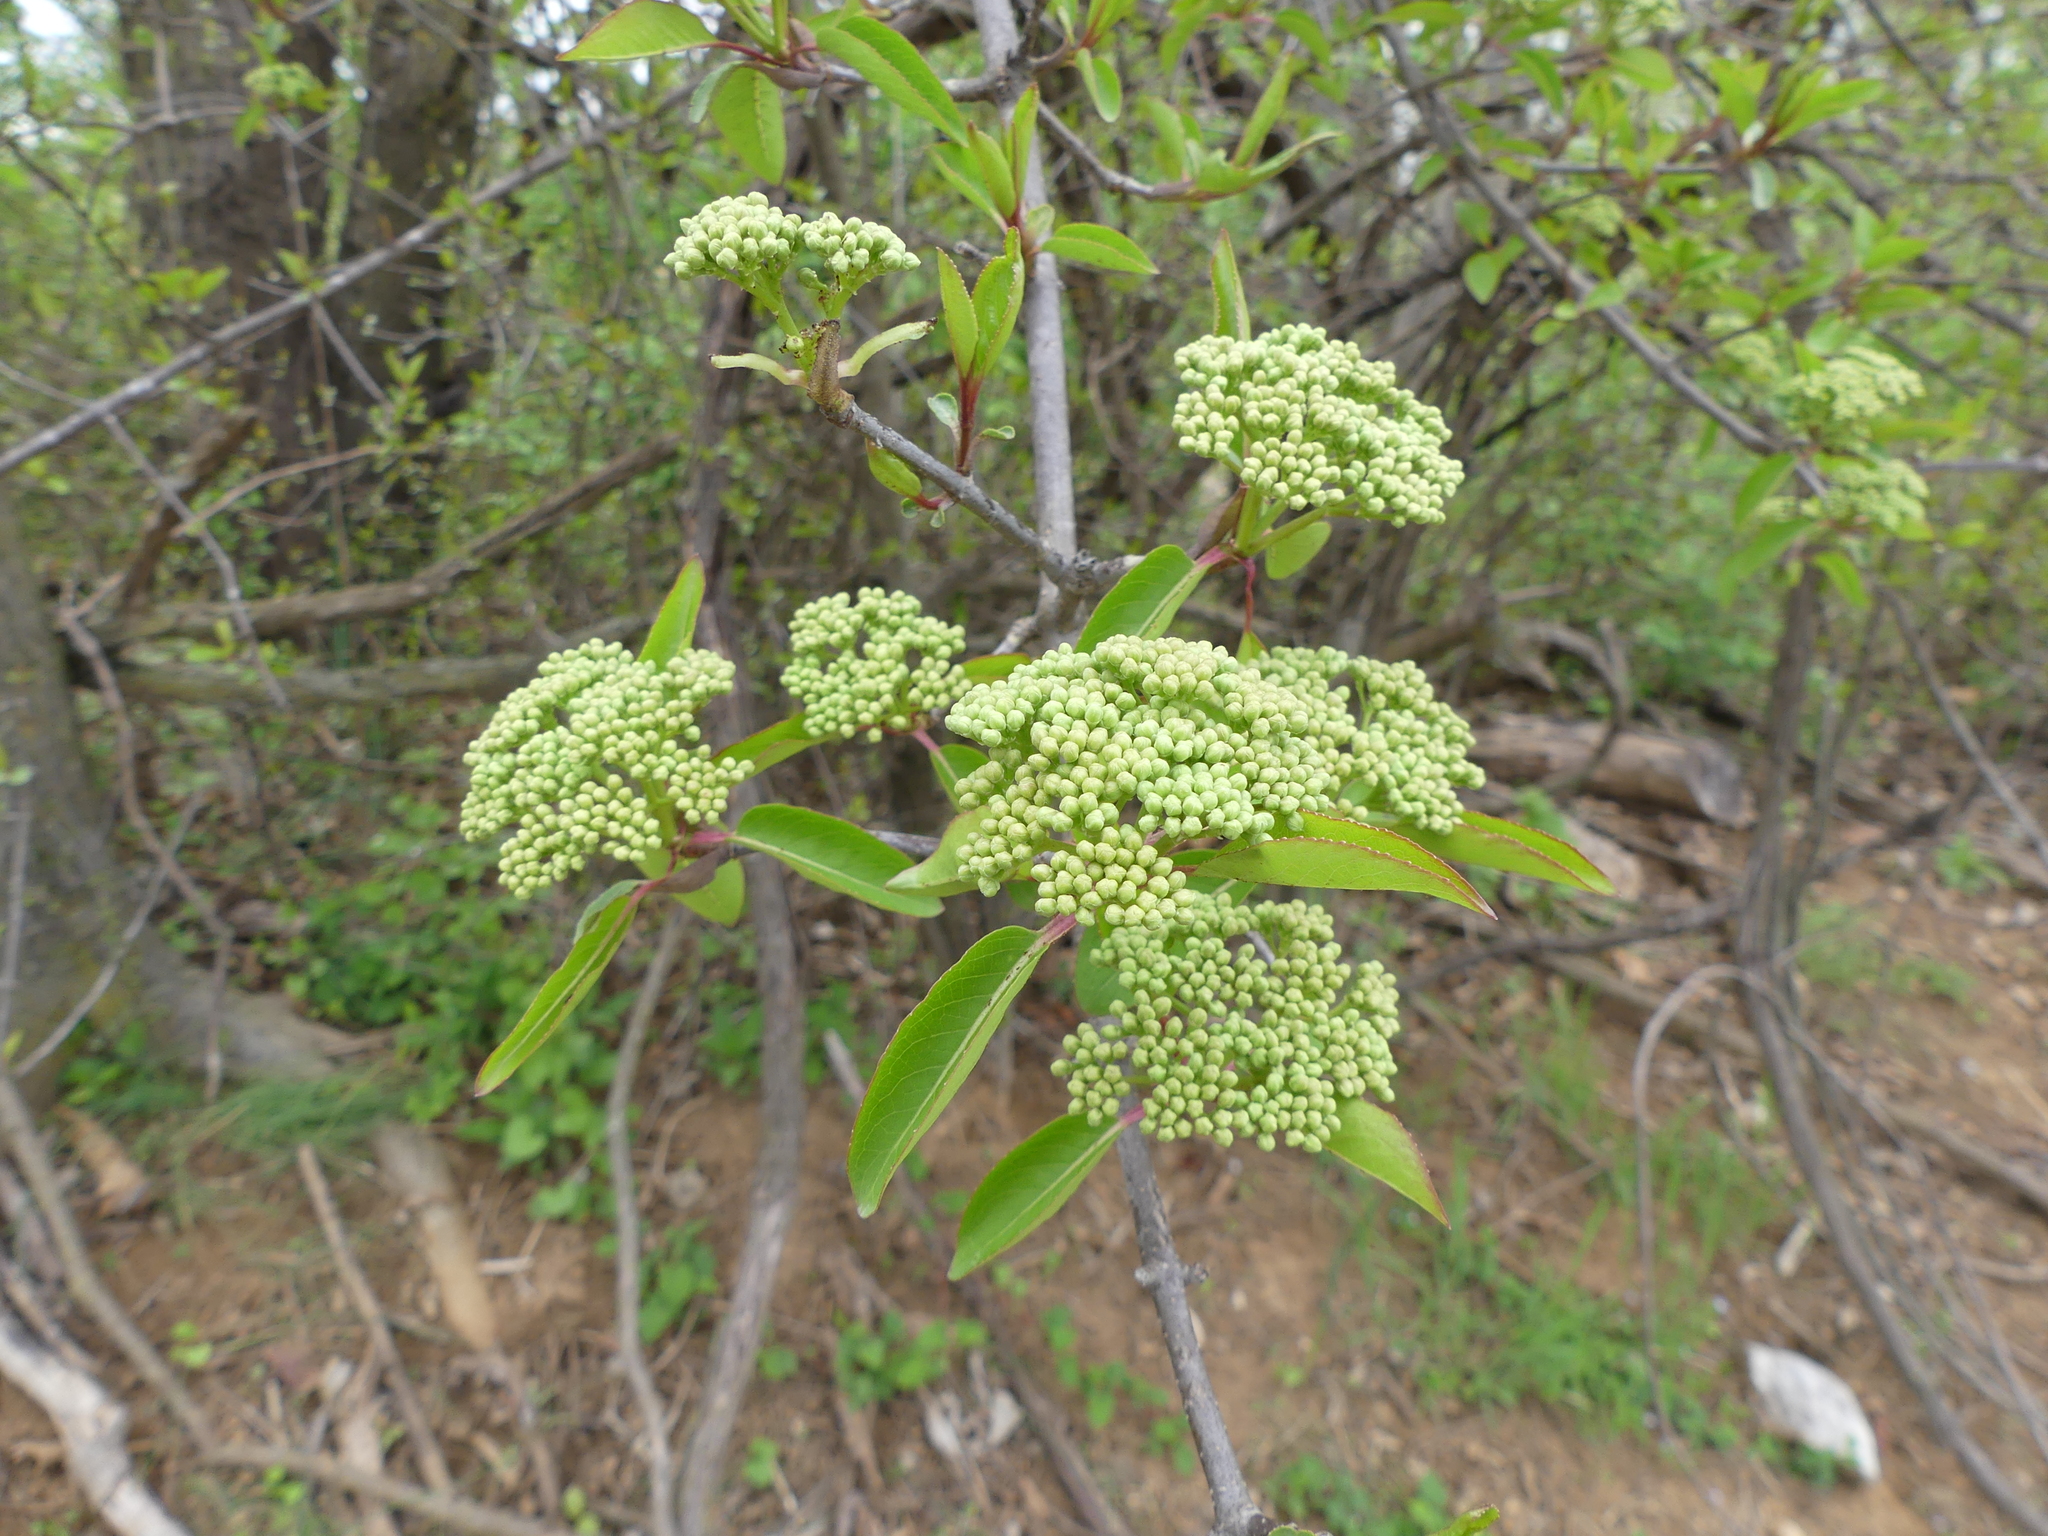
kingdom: Plantae
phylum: Tracheophyta
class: Magnoliopsida
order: Dipsacales
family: Viburnaceae
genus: Viburnum
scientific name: Viburnum prunifolium
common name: Black haw
